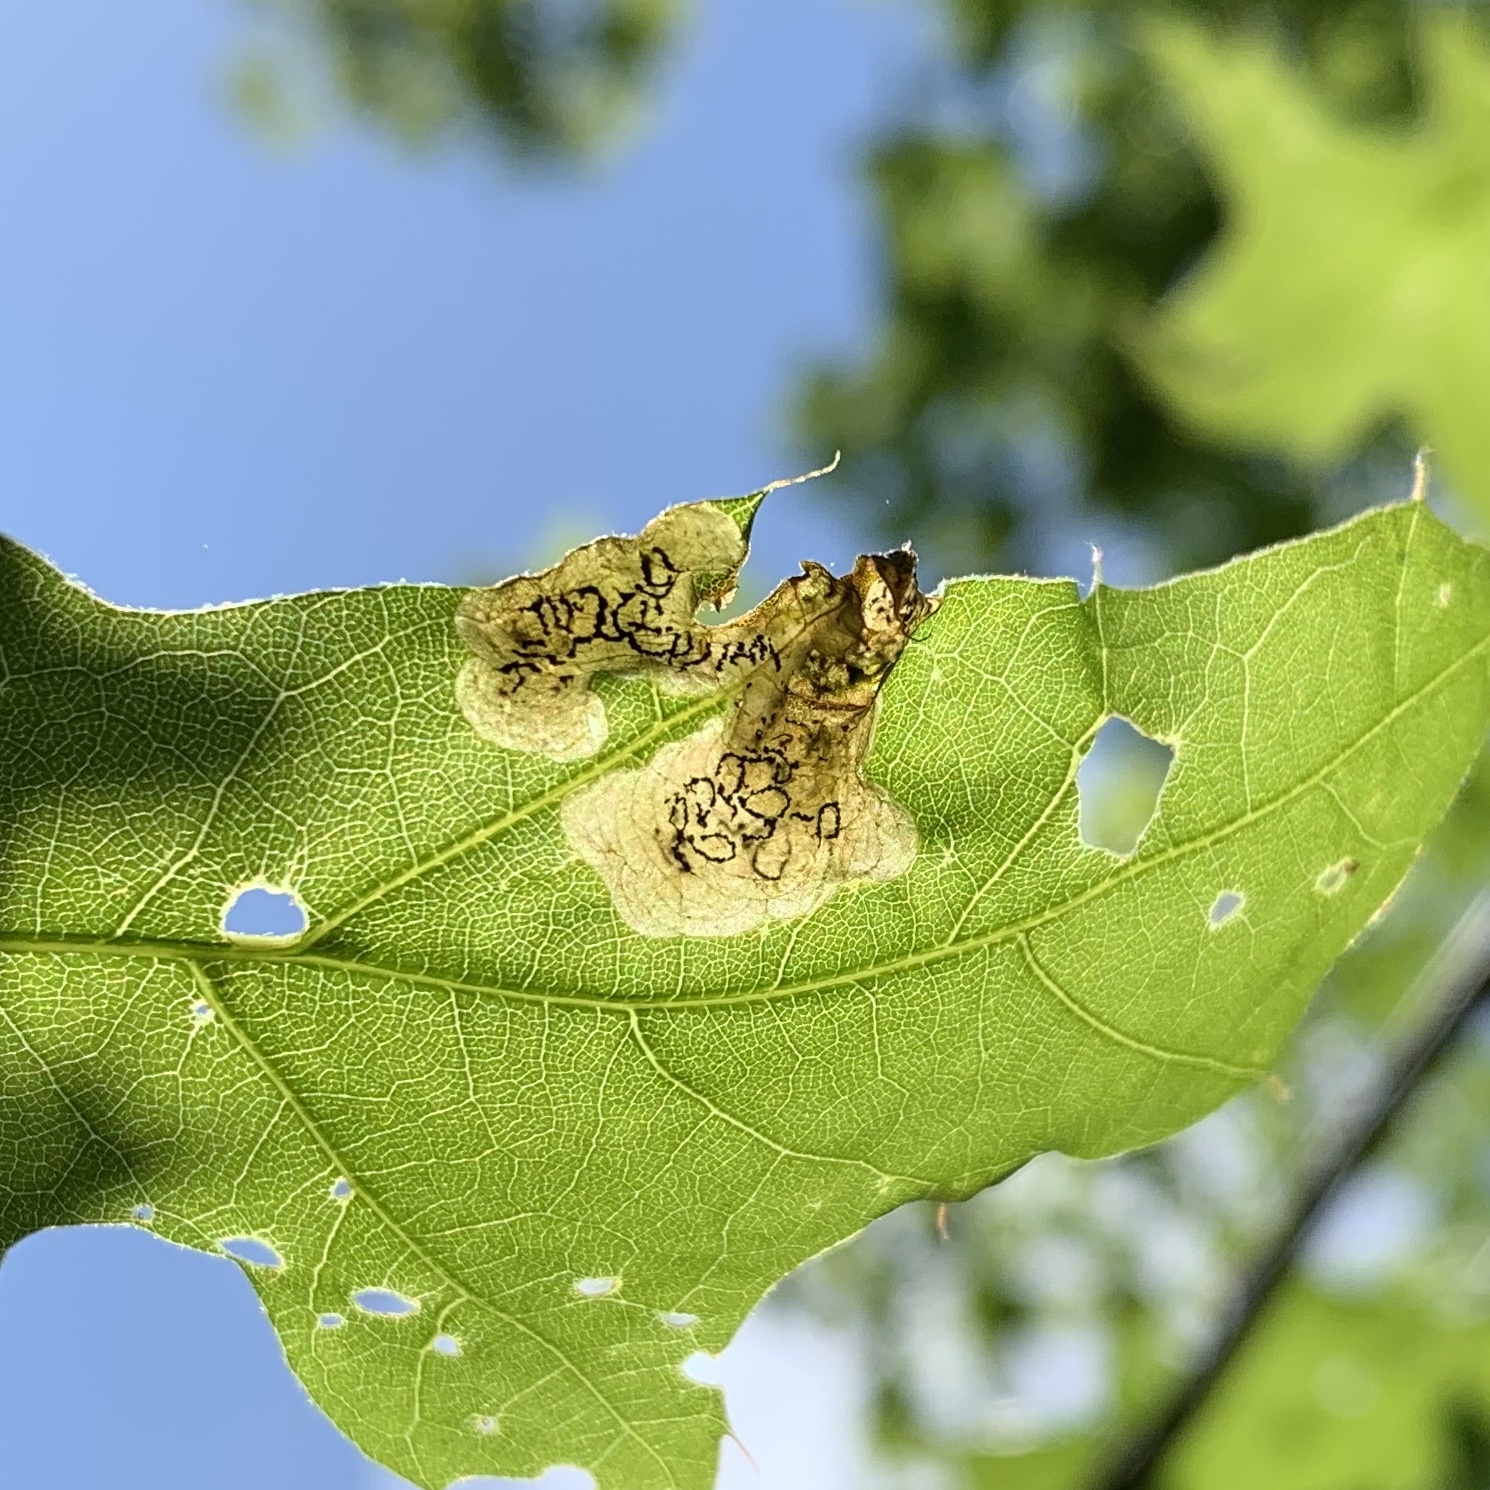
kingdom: Animalia
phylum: Arthropoda
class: Insecta
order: Diptera
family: Agromyzidae
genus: Japanagromyza
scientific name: Japanagromyza viridula
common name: Oak shothole leafminer
